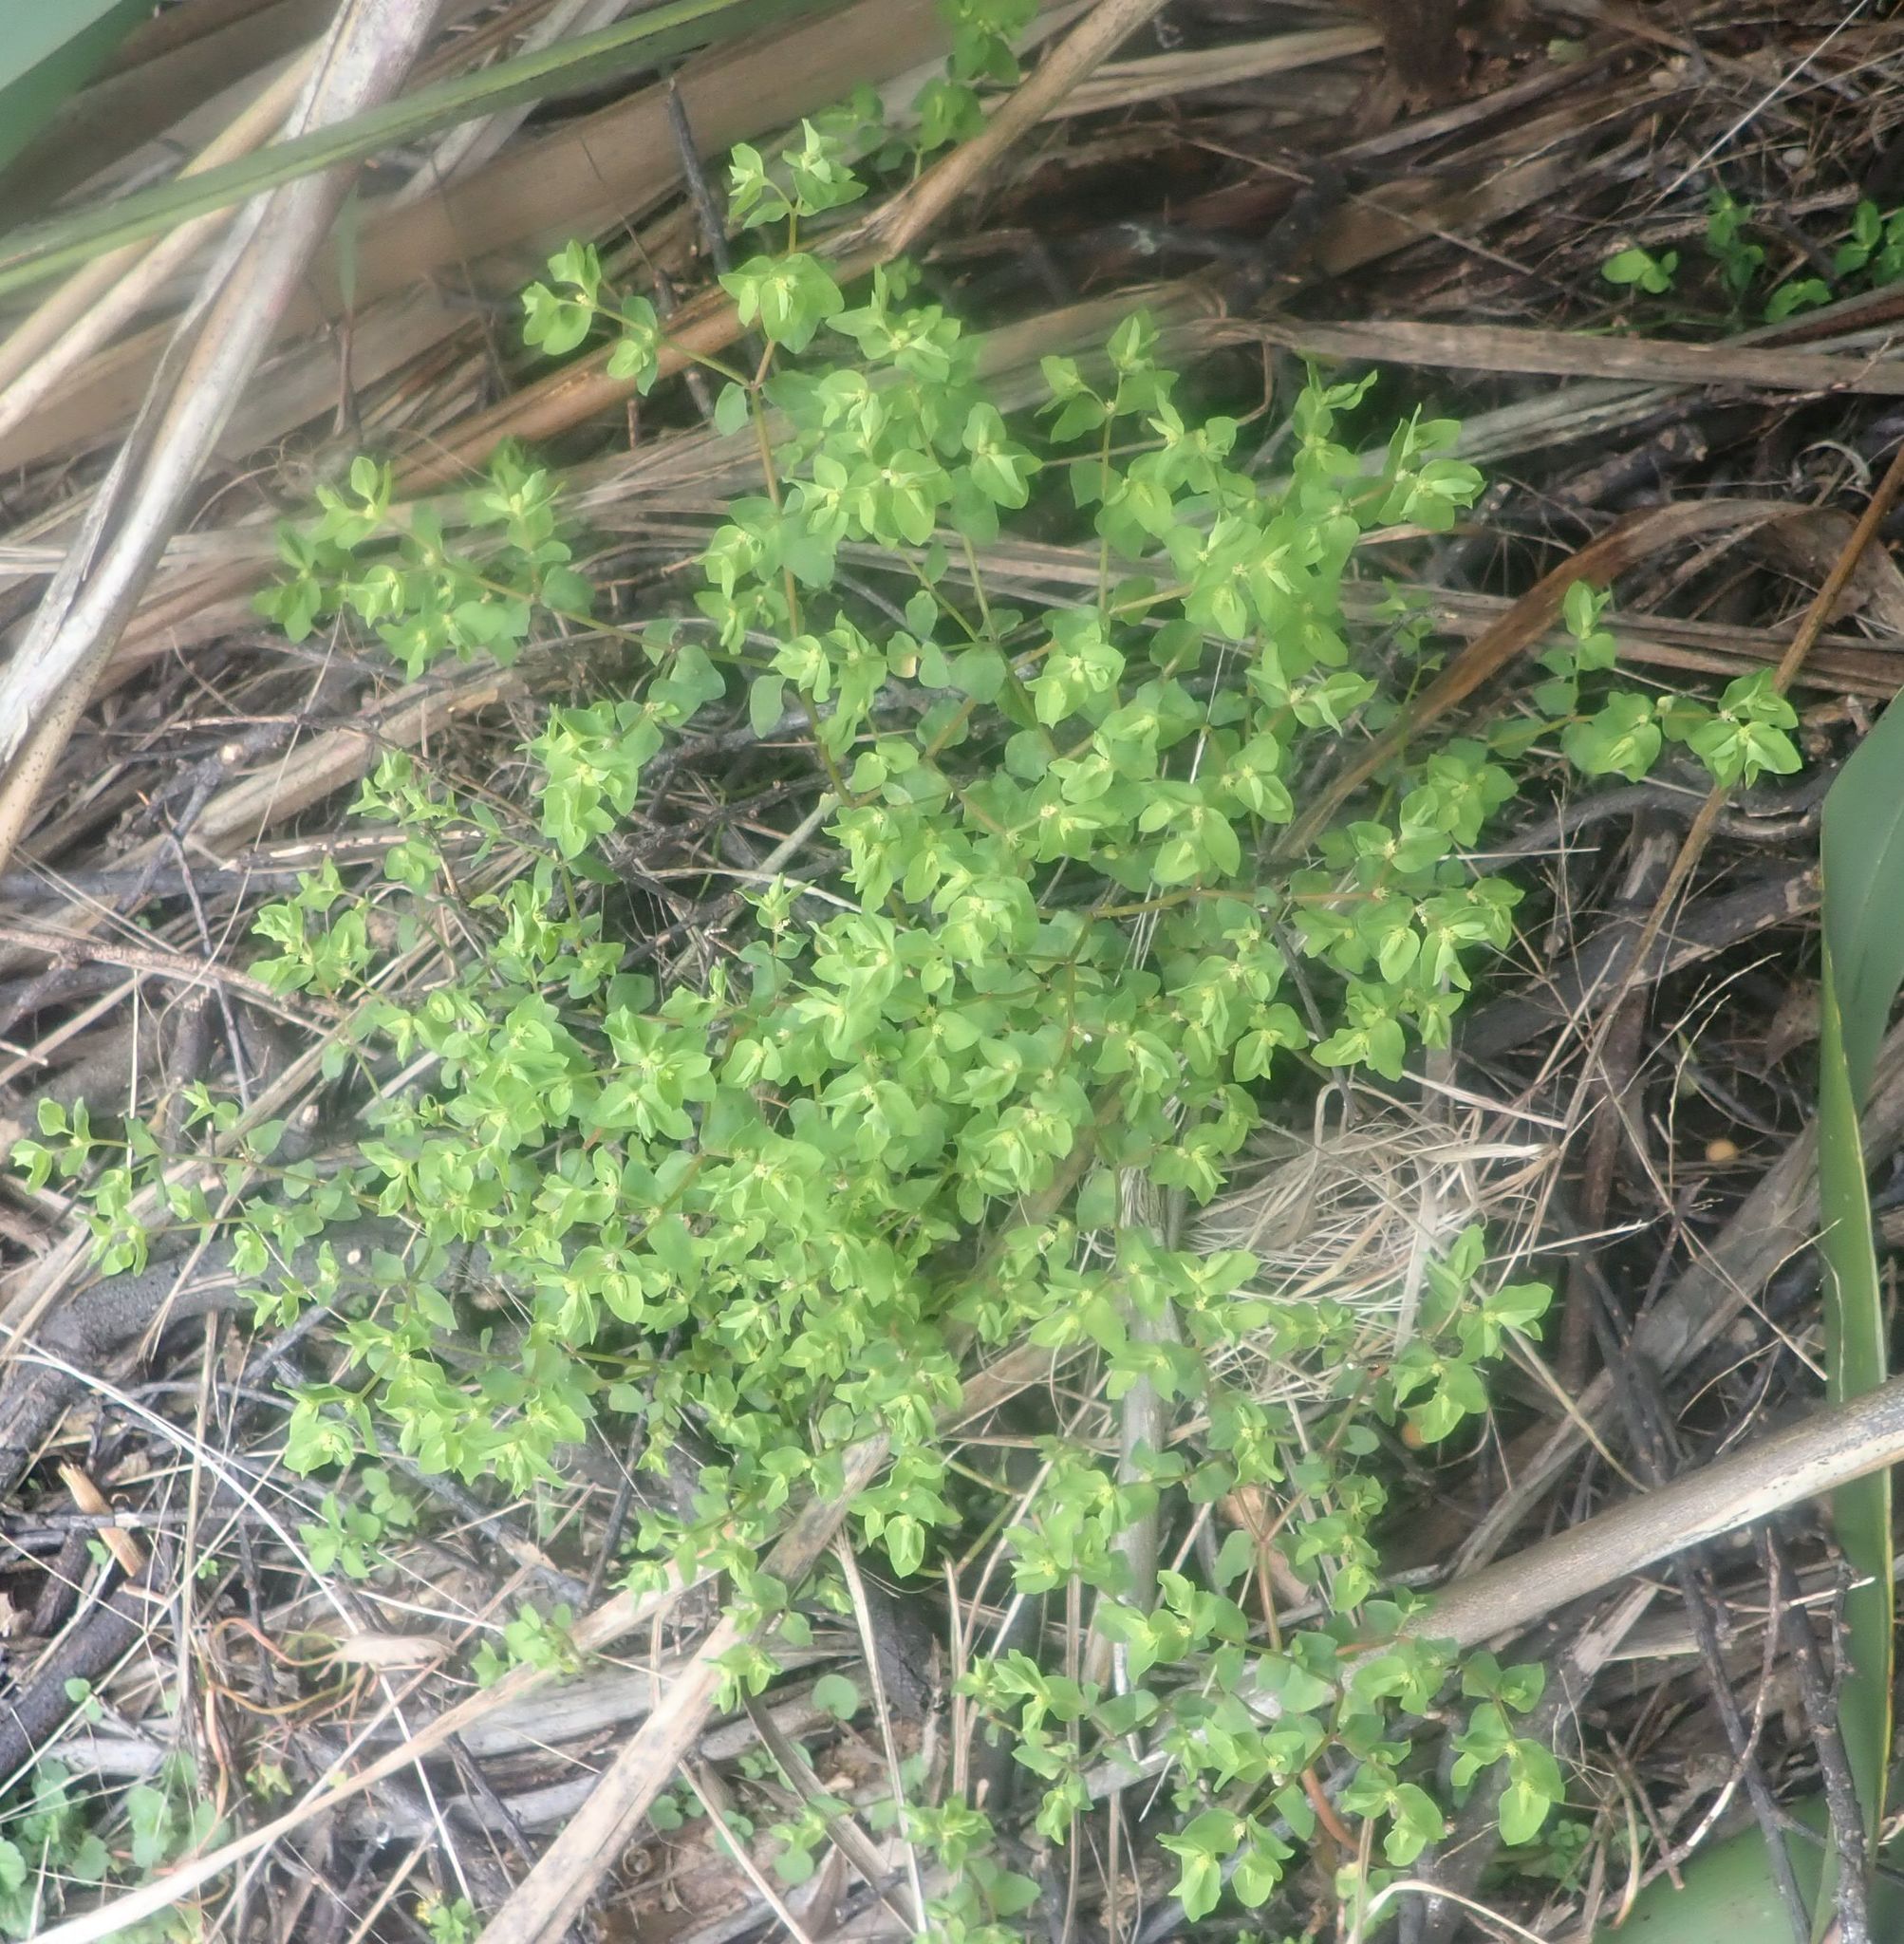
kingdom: Plantae
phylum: Tracheophyta
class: Magnoliopsida
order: Malpighiales
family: Euphorbiaceae
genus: Euphorbia
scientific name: Euphorbia peplus
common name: Petty spurge
